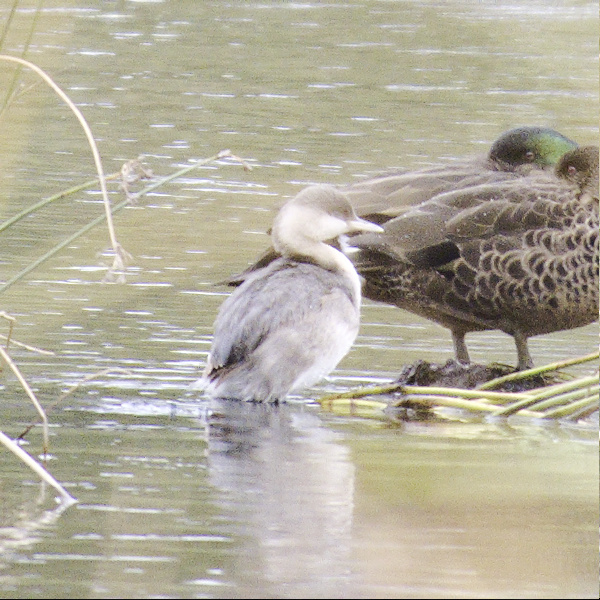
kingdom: Animalia
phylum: Chordata
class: Aves
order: Podicipediformes
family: Podicipedidae
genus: Poliocephalus
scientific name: Poliocephalus poliocephalus
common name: Hoary-headed grebe
